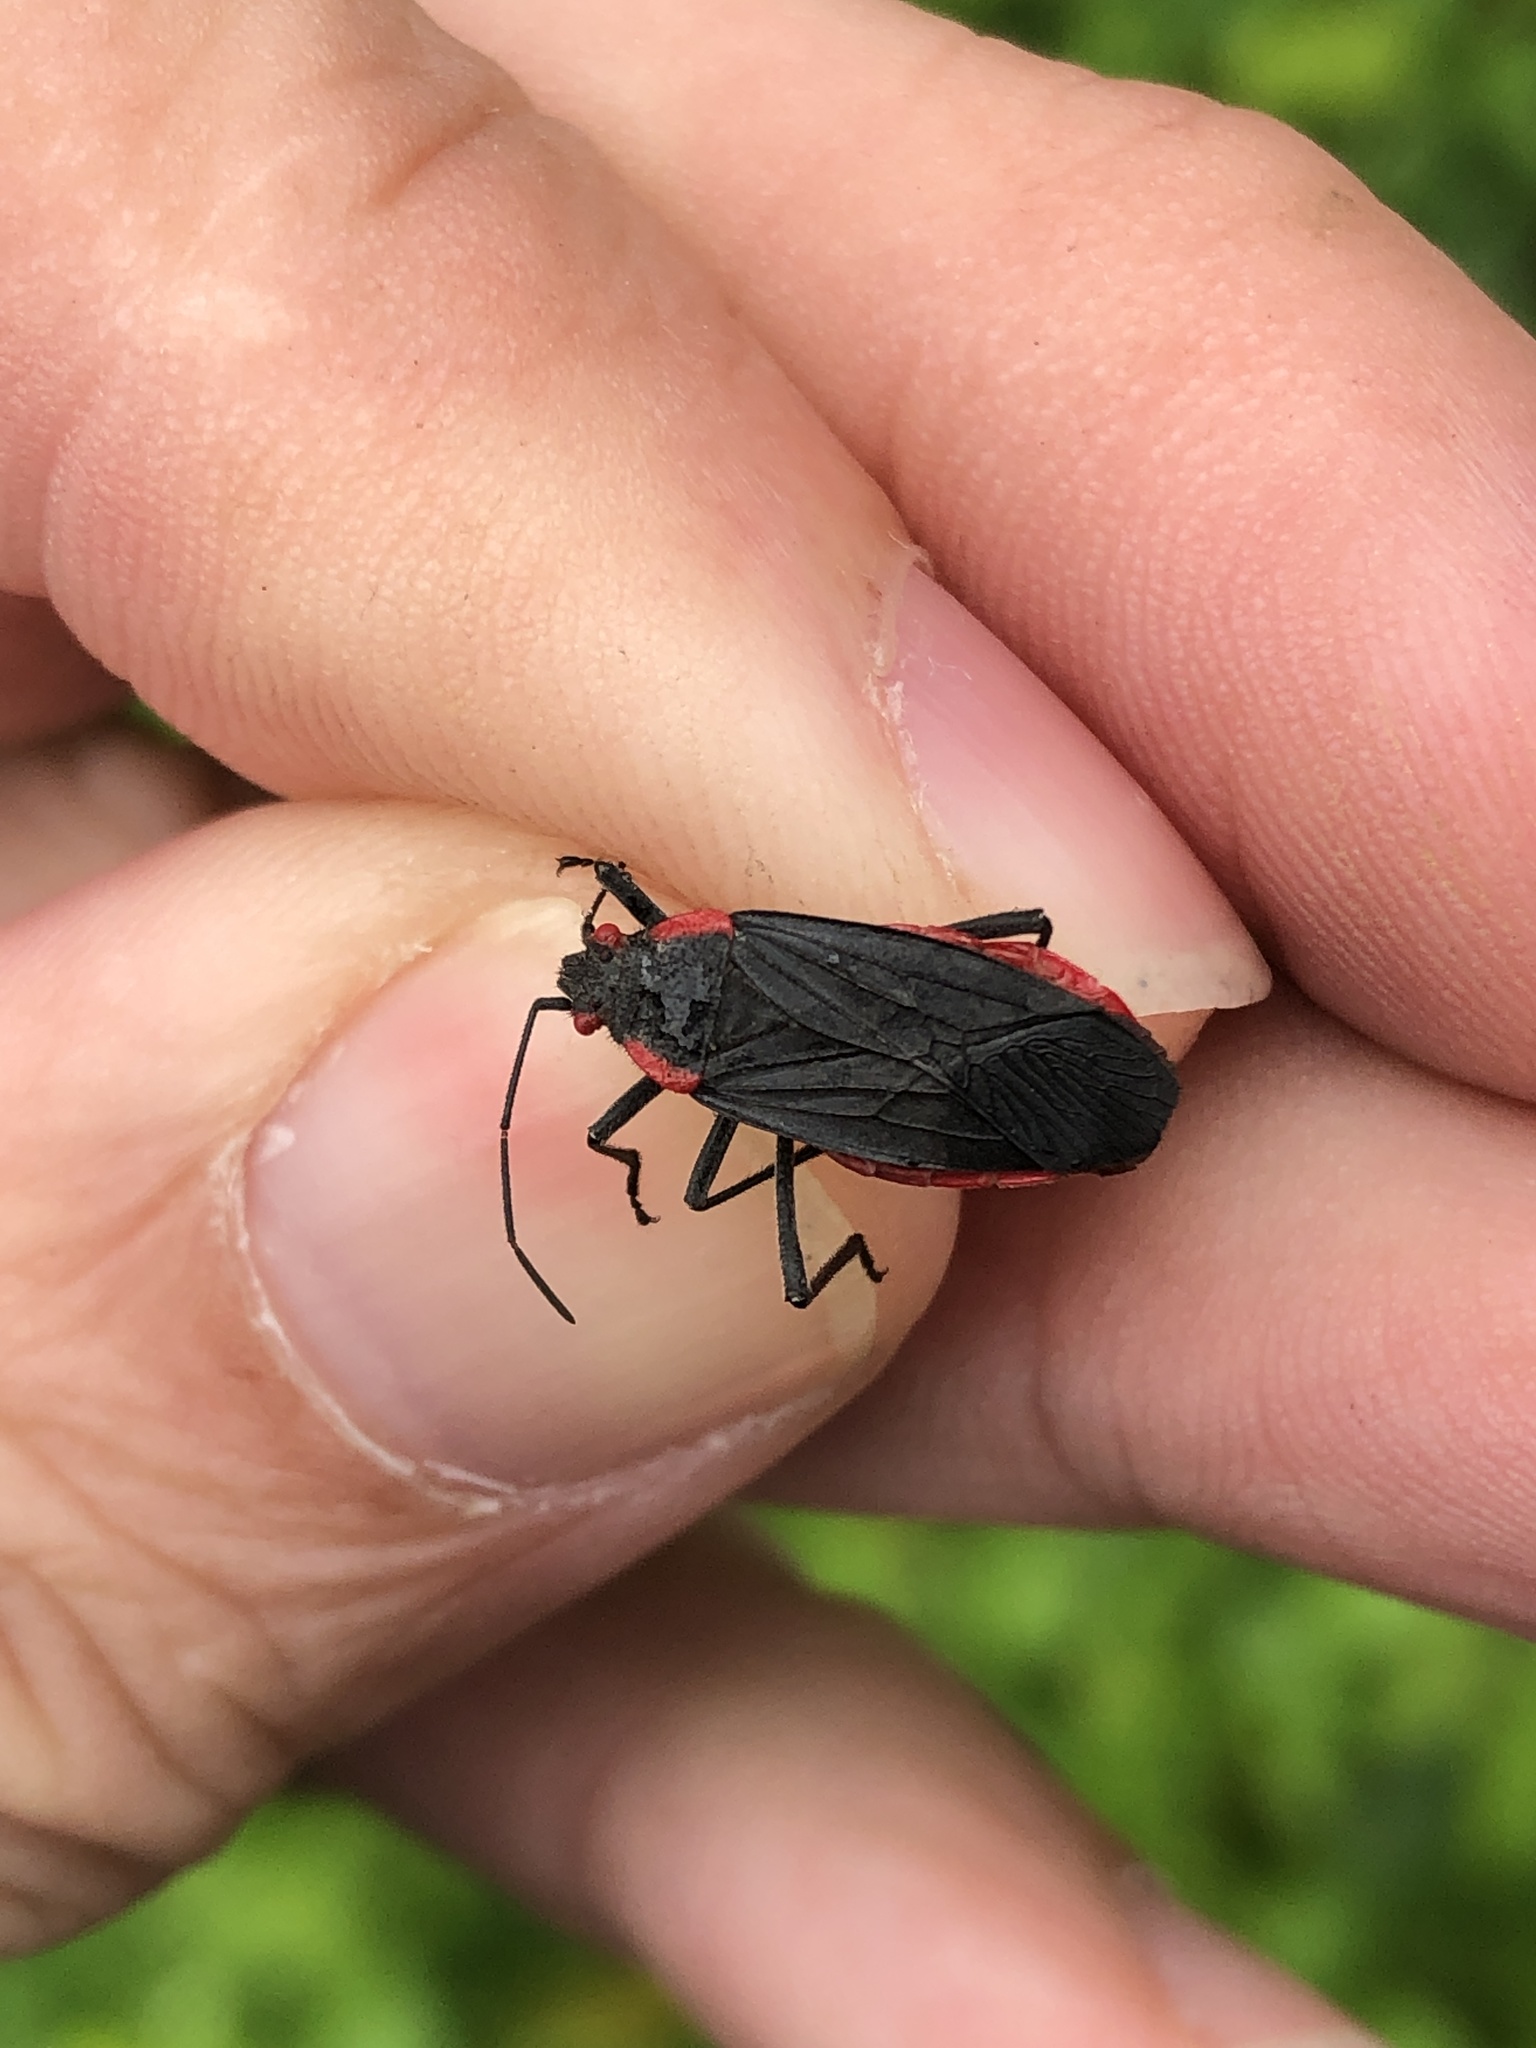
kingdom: Animalia
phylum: Arthropoda
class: Insecta
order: Hemiptera
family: Rhopalidae
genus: Jadera
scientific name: Jadera haematoloma
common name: Red-shouldered bug
